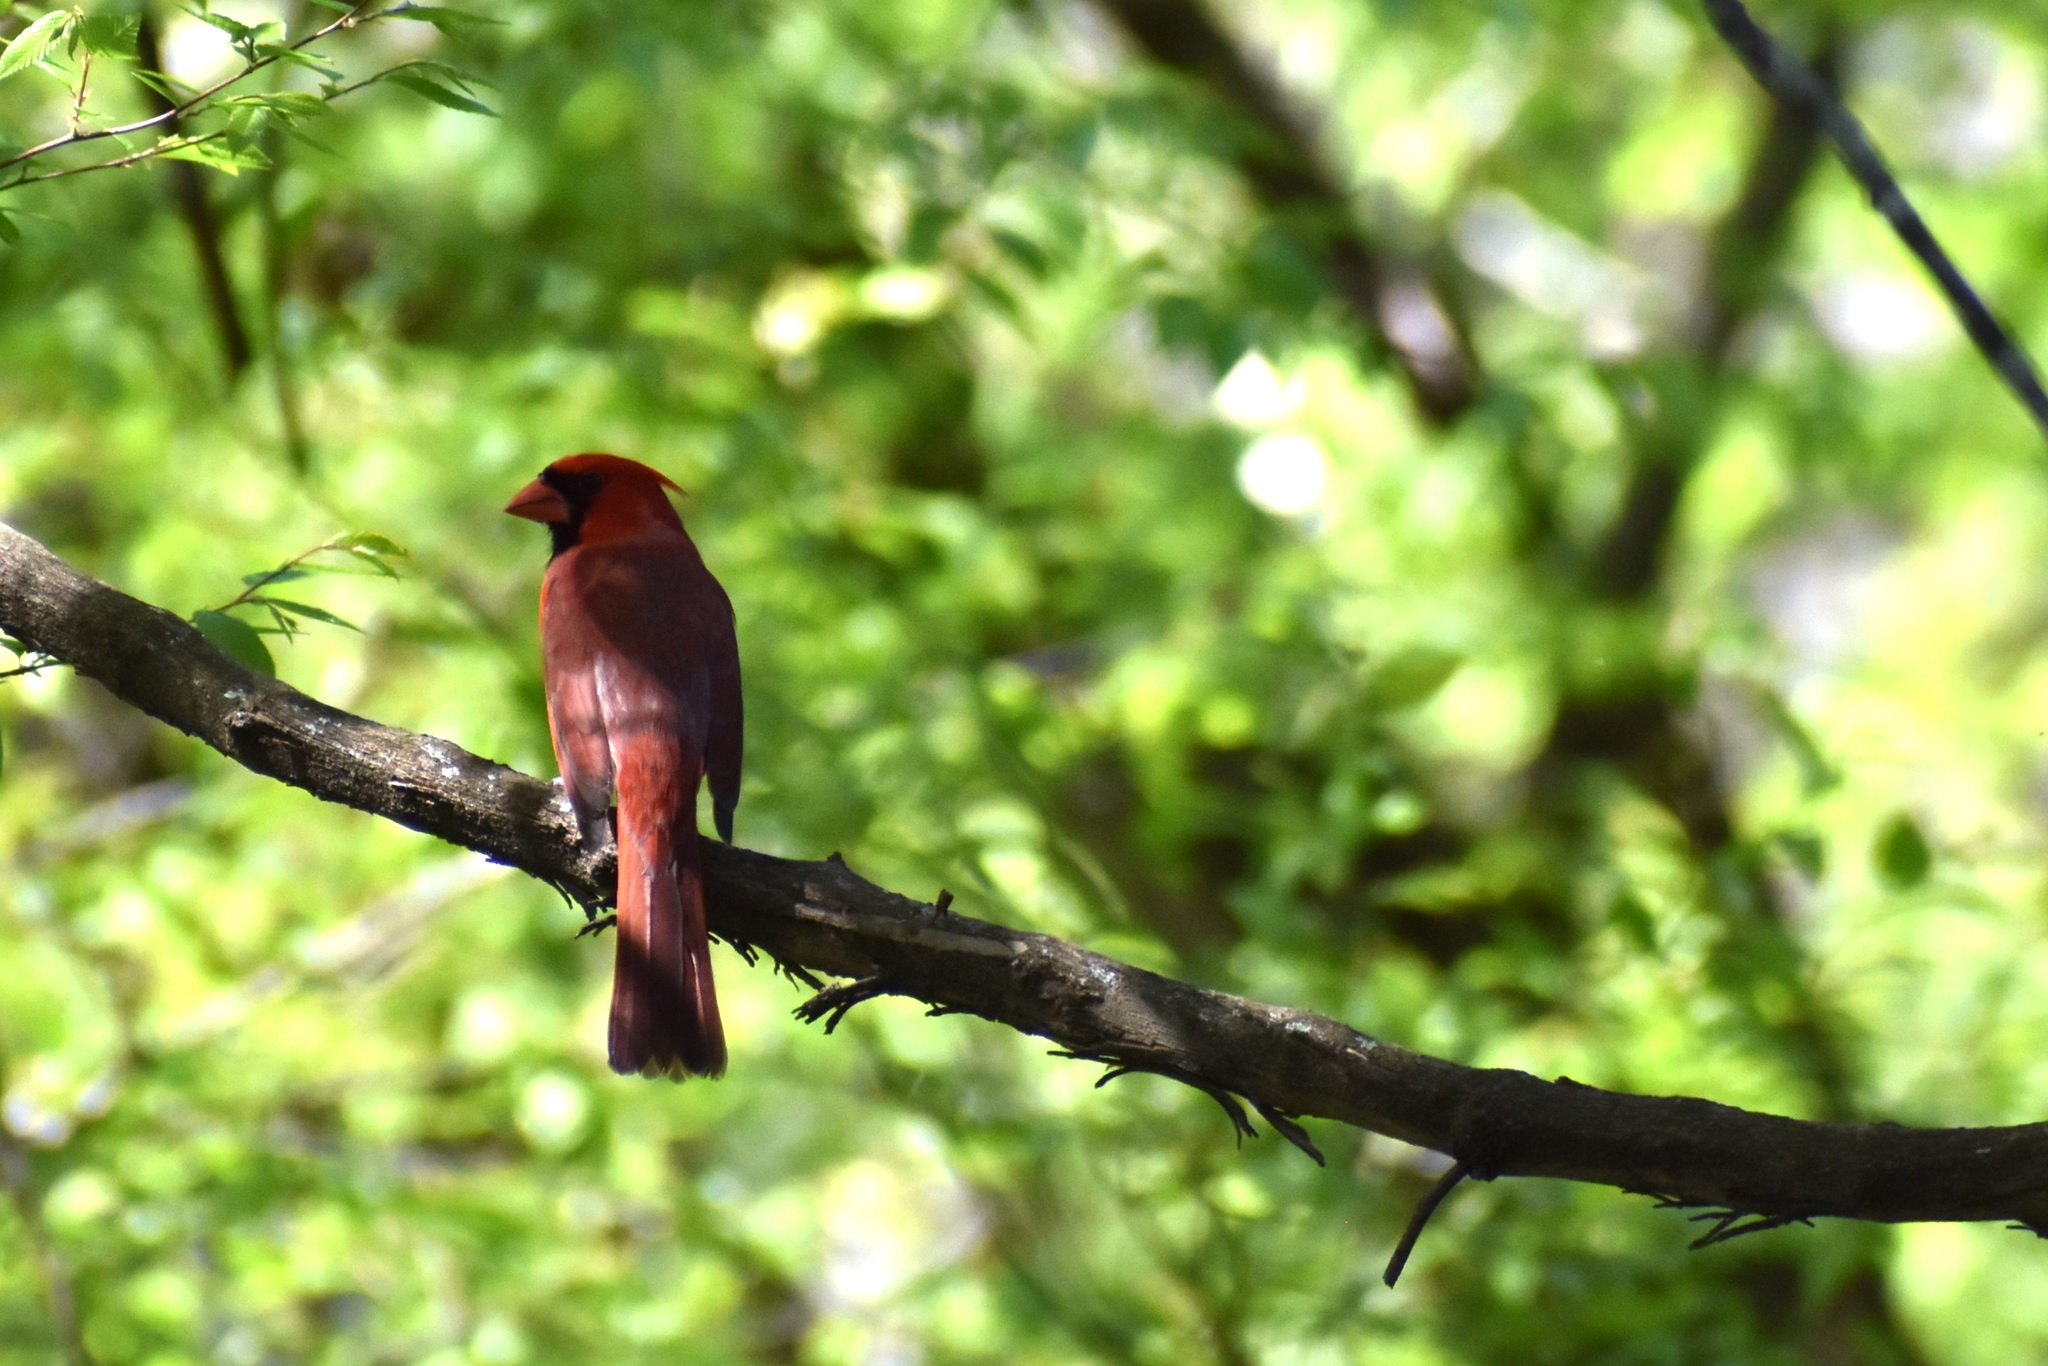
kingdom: Animalia
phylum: Chordata
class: Aves
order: Passeriformes
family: Cardinalidae
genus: Cardinalis
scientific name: Cardinalis cardinalis
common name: Northern cardinal
